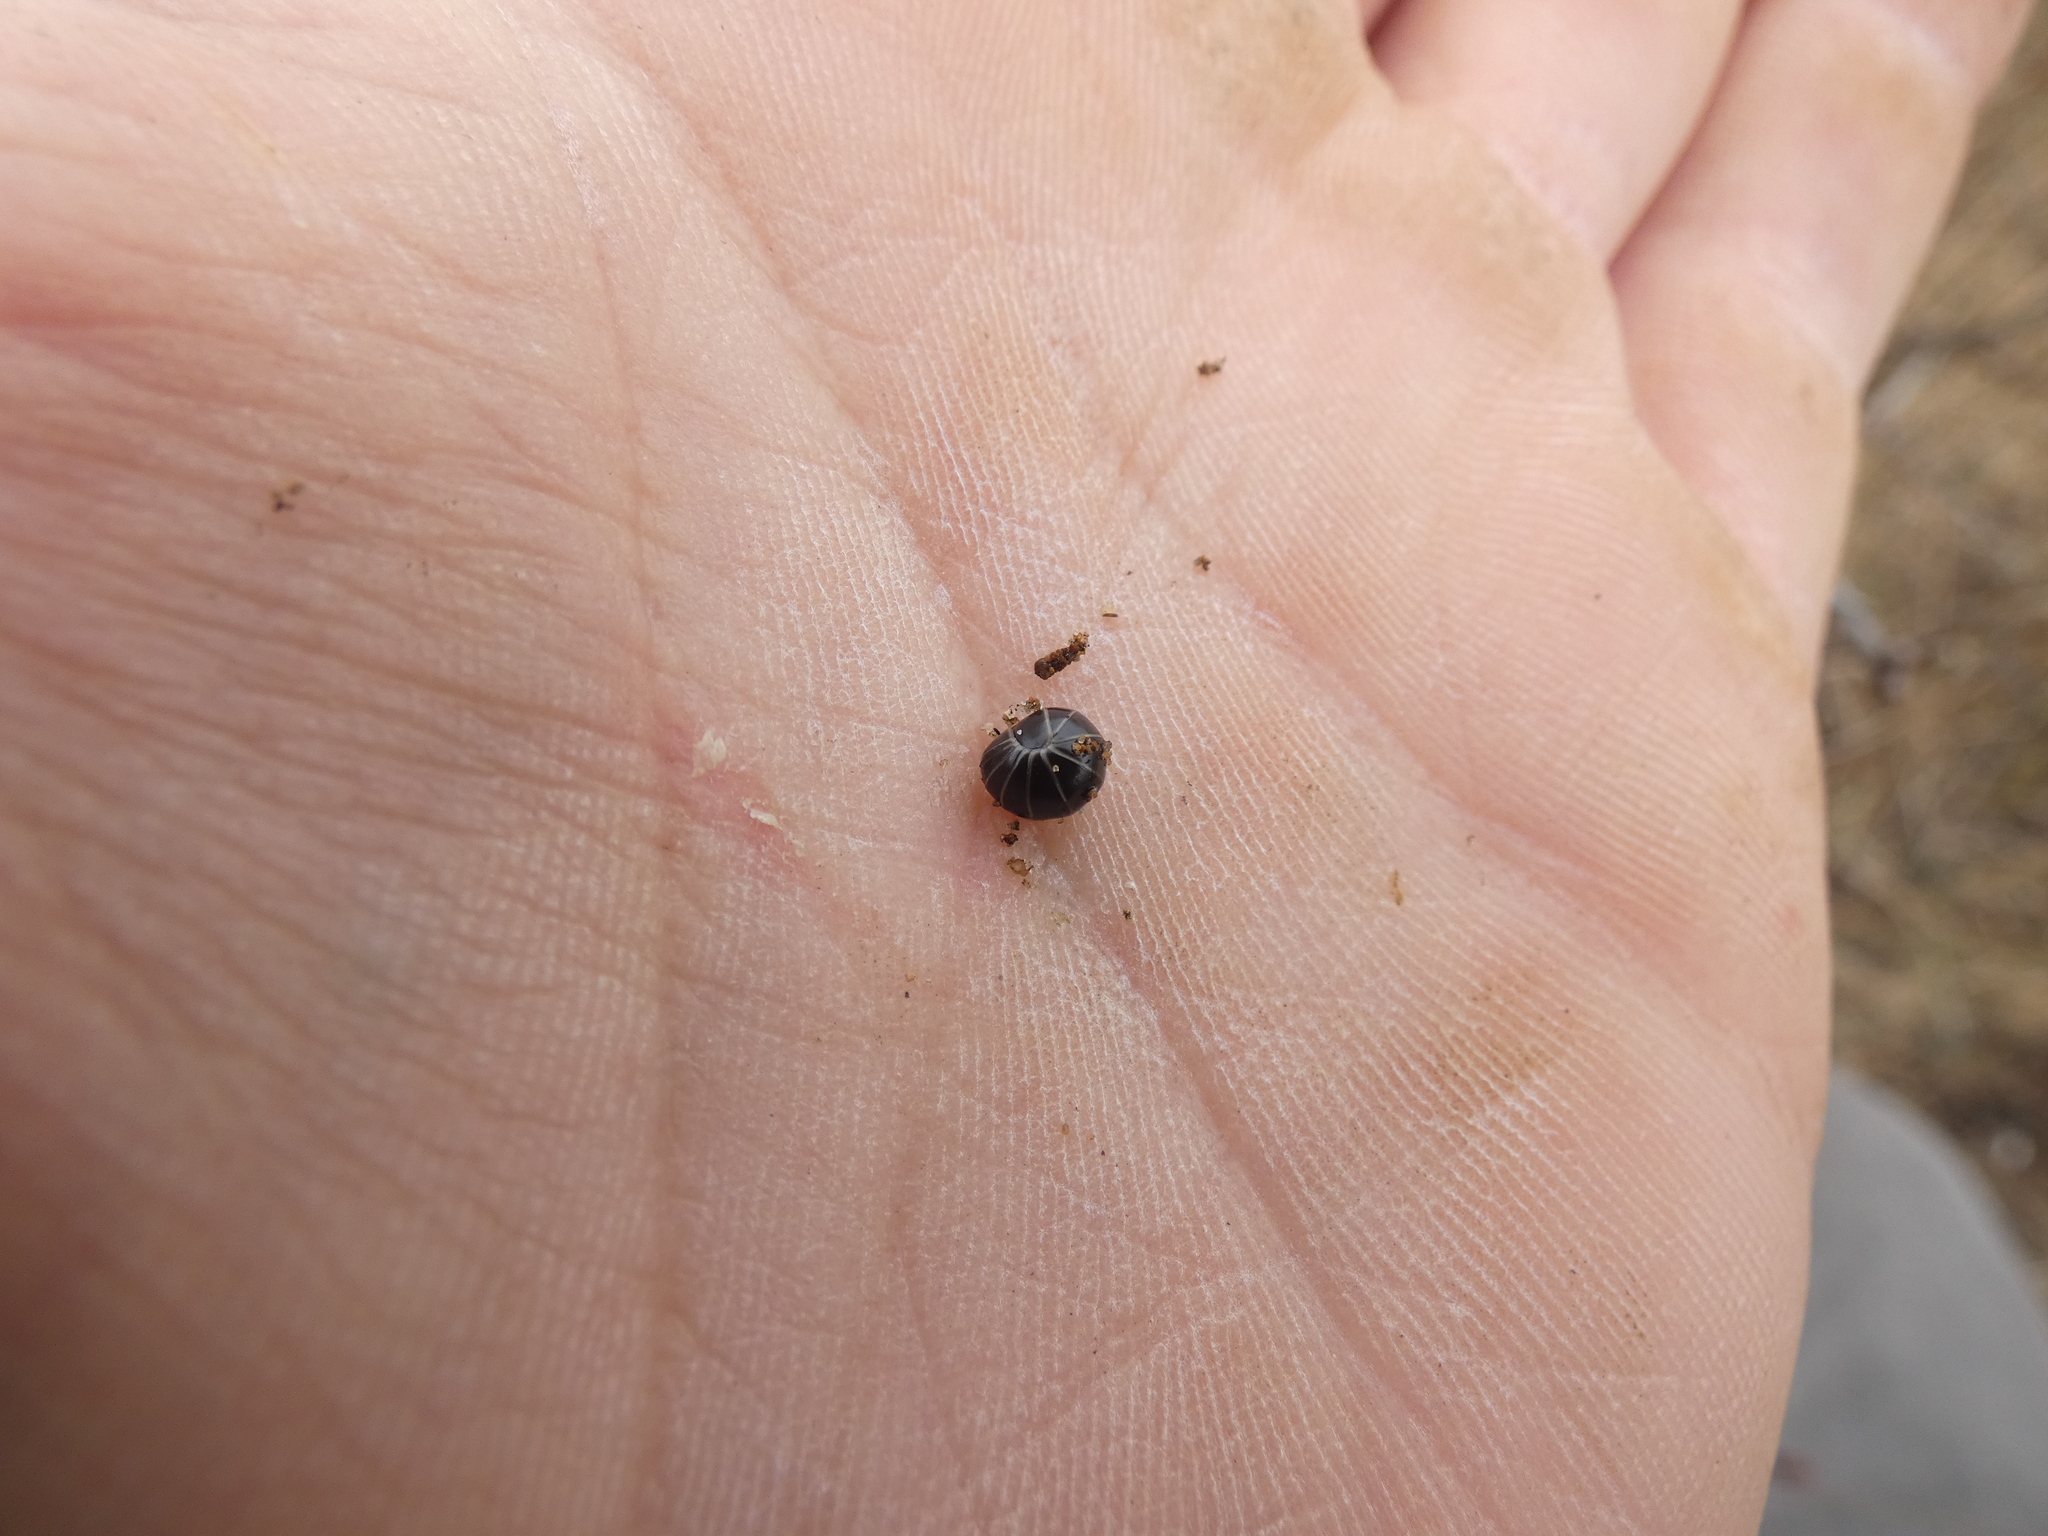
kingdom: Animalia
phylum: Arthropoda
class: Diplopoda
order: Glomerida
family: Glomeridae
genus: Glomeris
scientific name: Glomeris marginata
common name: Bordered pill millipede
